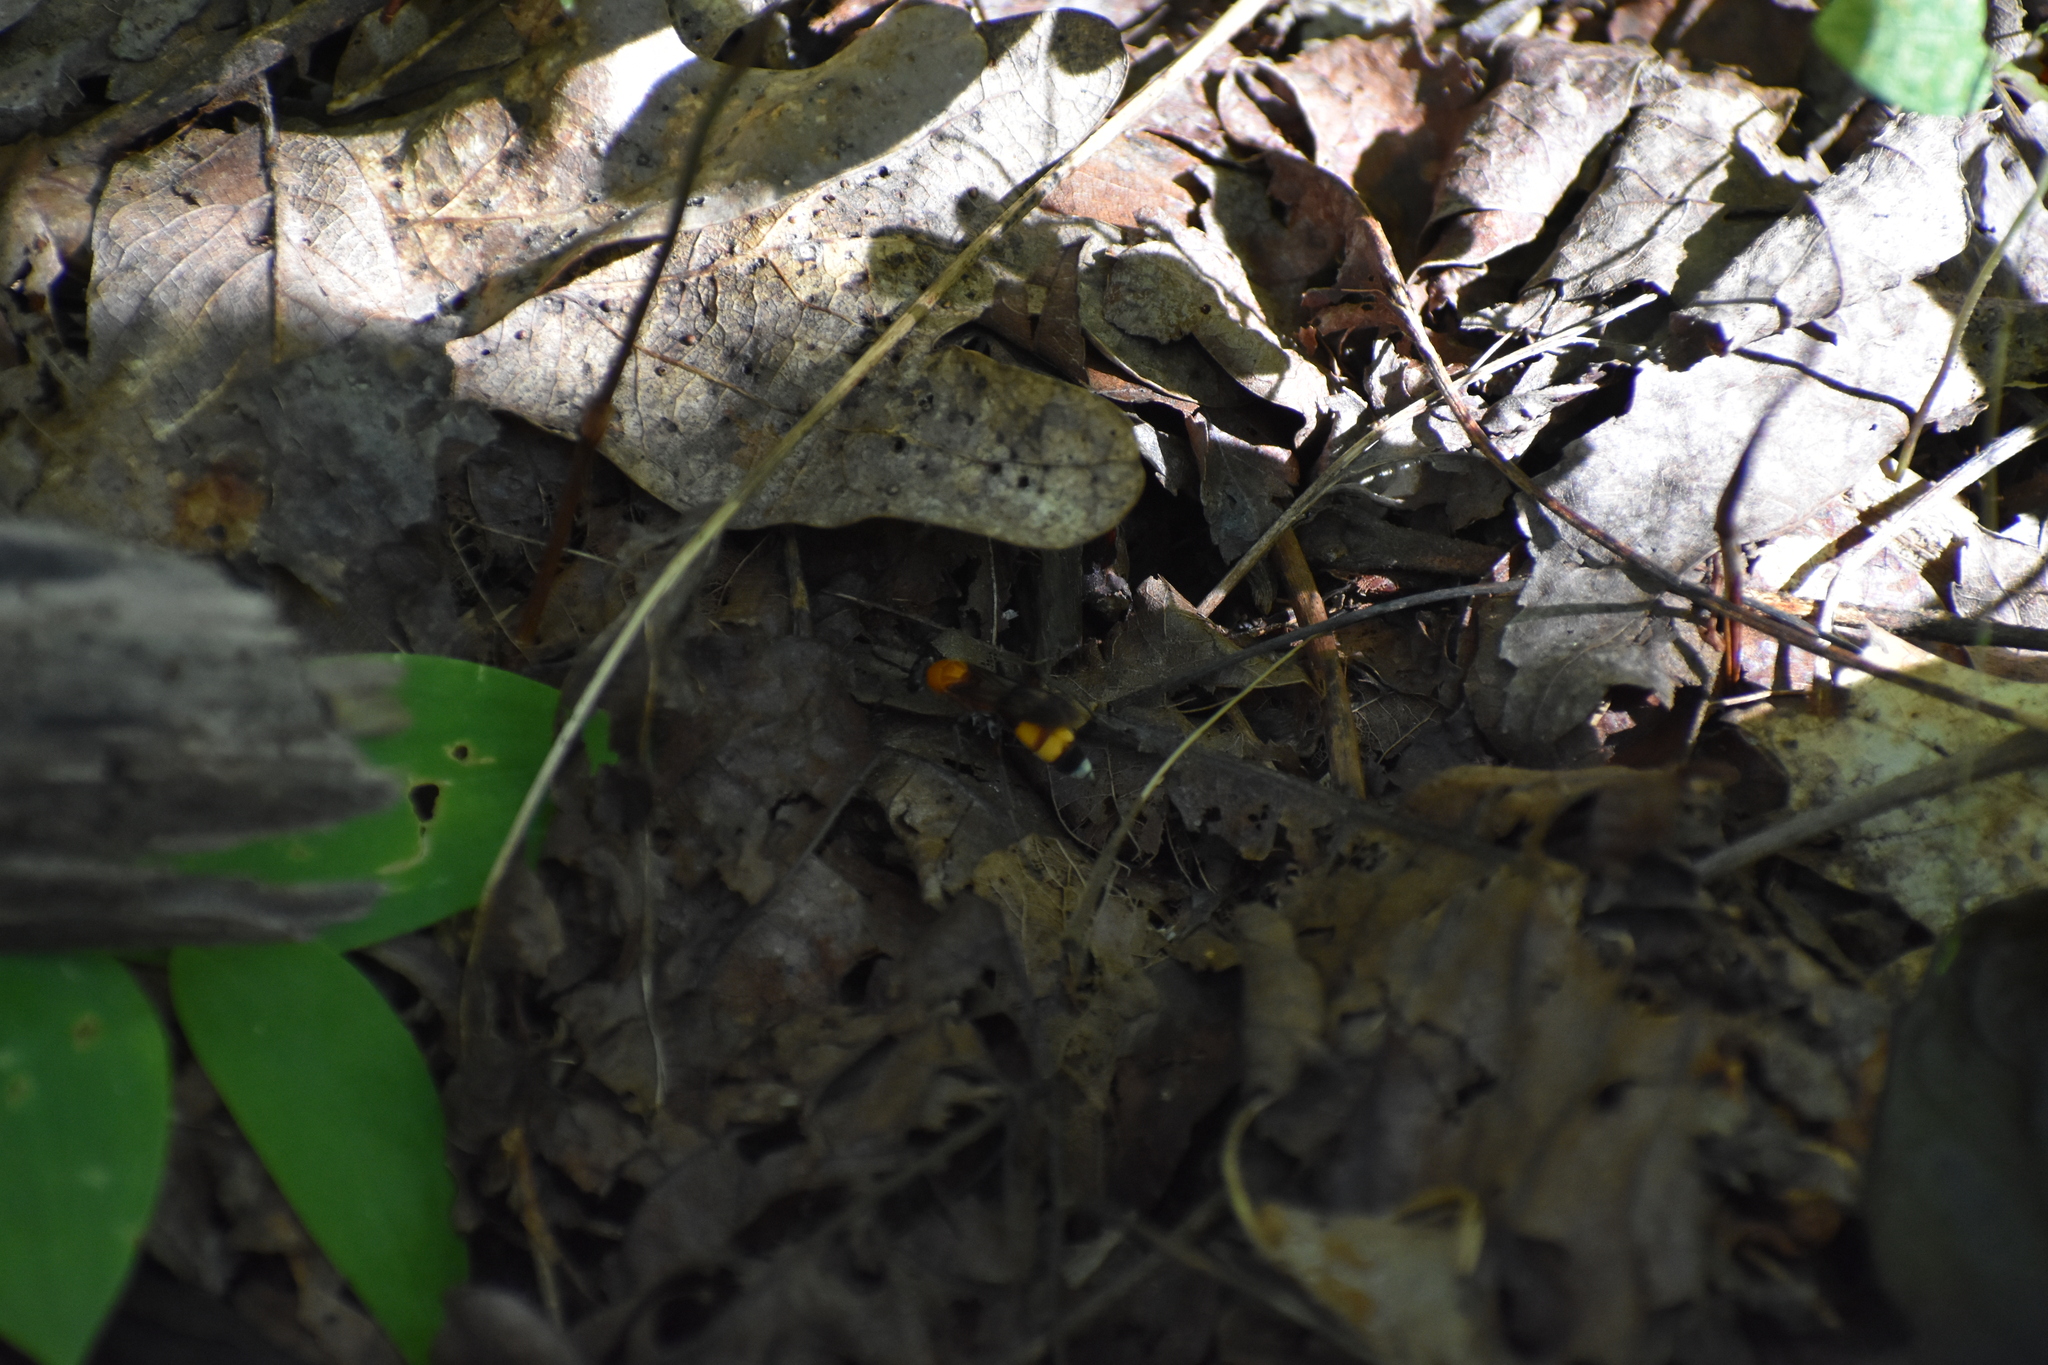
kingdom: Animalia
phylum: Arthropoda
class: Insecta
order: Hymenoptera
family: Pompilidae
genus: Psorthaspis
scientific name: Psorthaspis mariae
